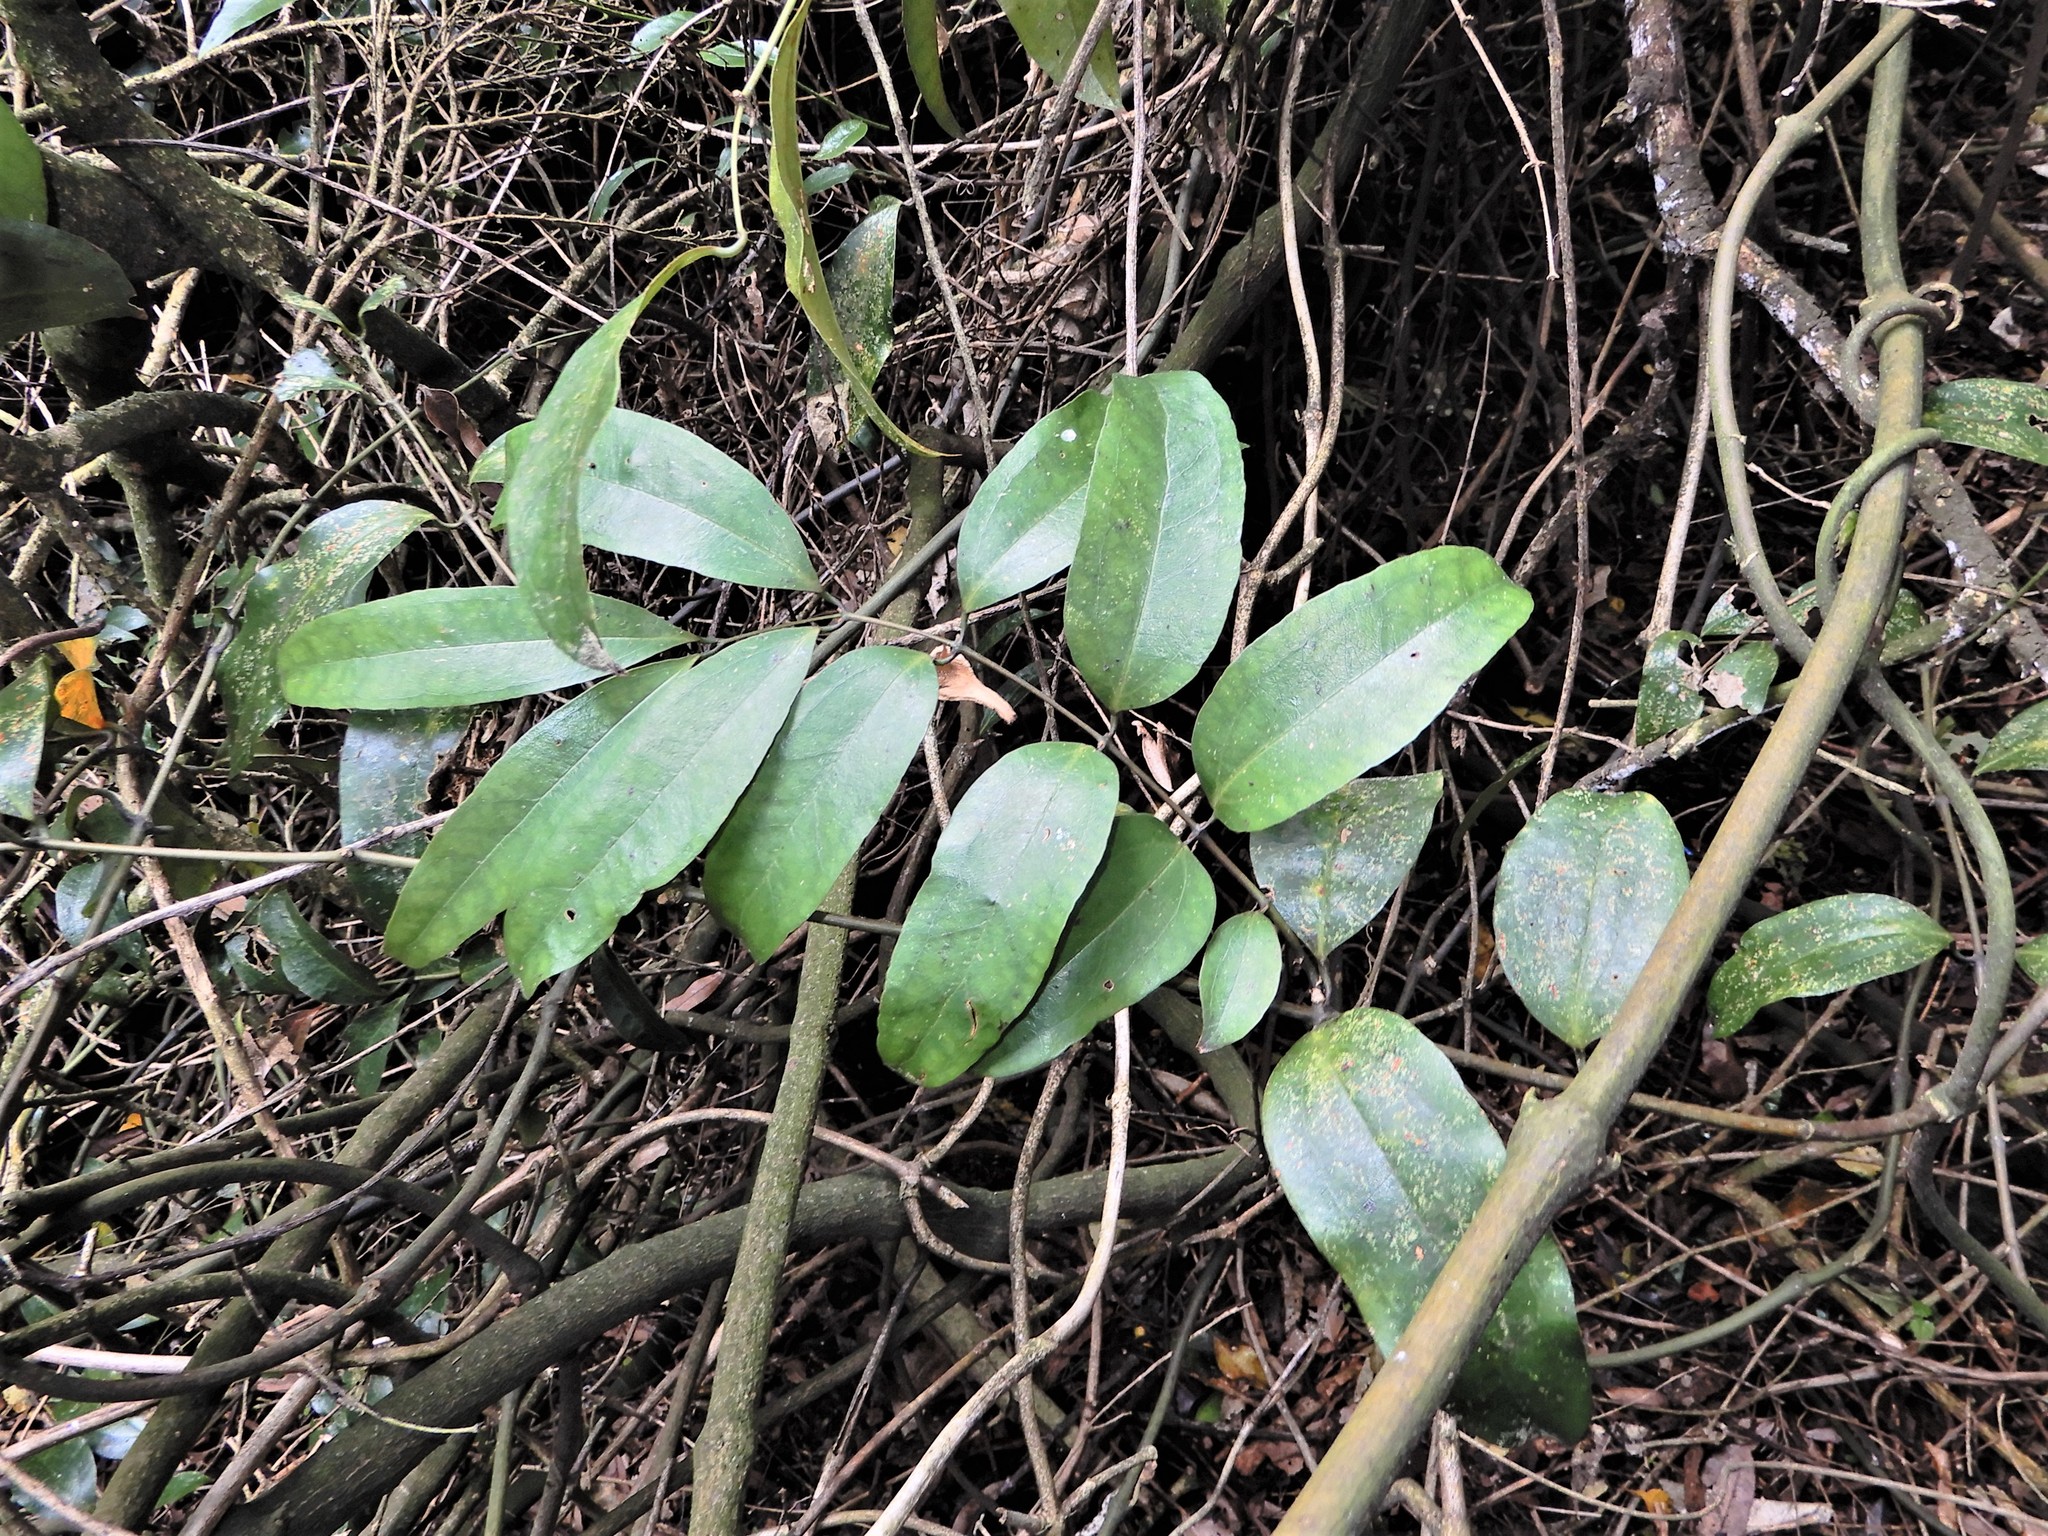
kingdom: Plantae
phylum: Tracheophyta
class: Liliopsida
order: Liliales
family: Ripogonaceae
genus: Ripogonum
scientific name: Ripogonum scandens
